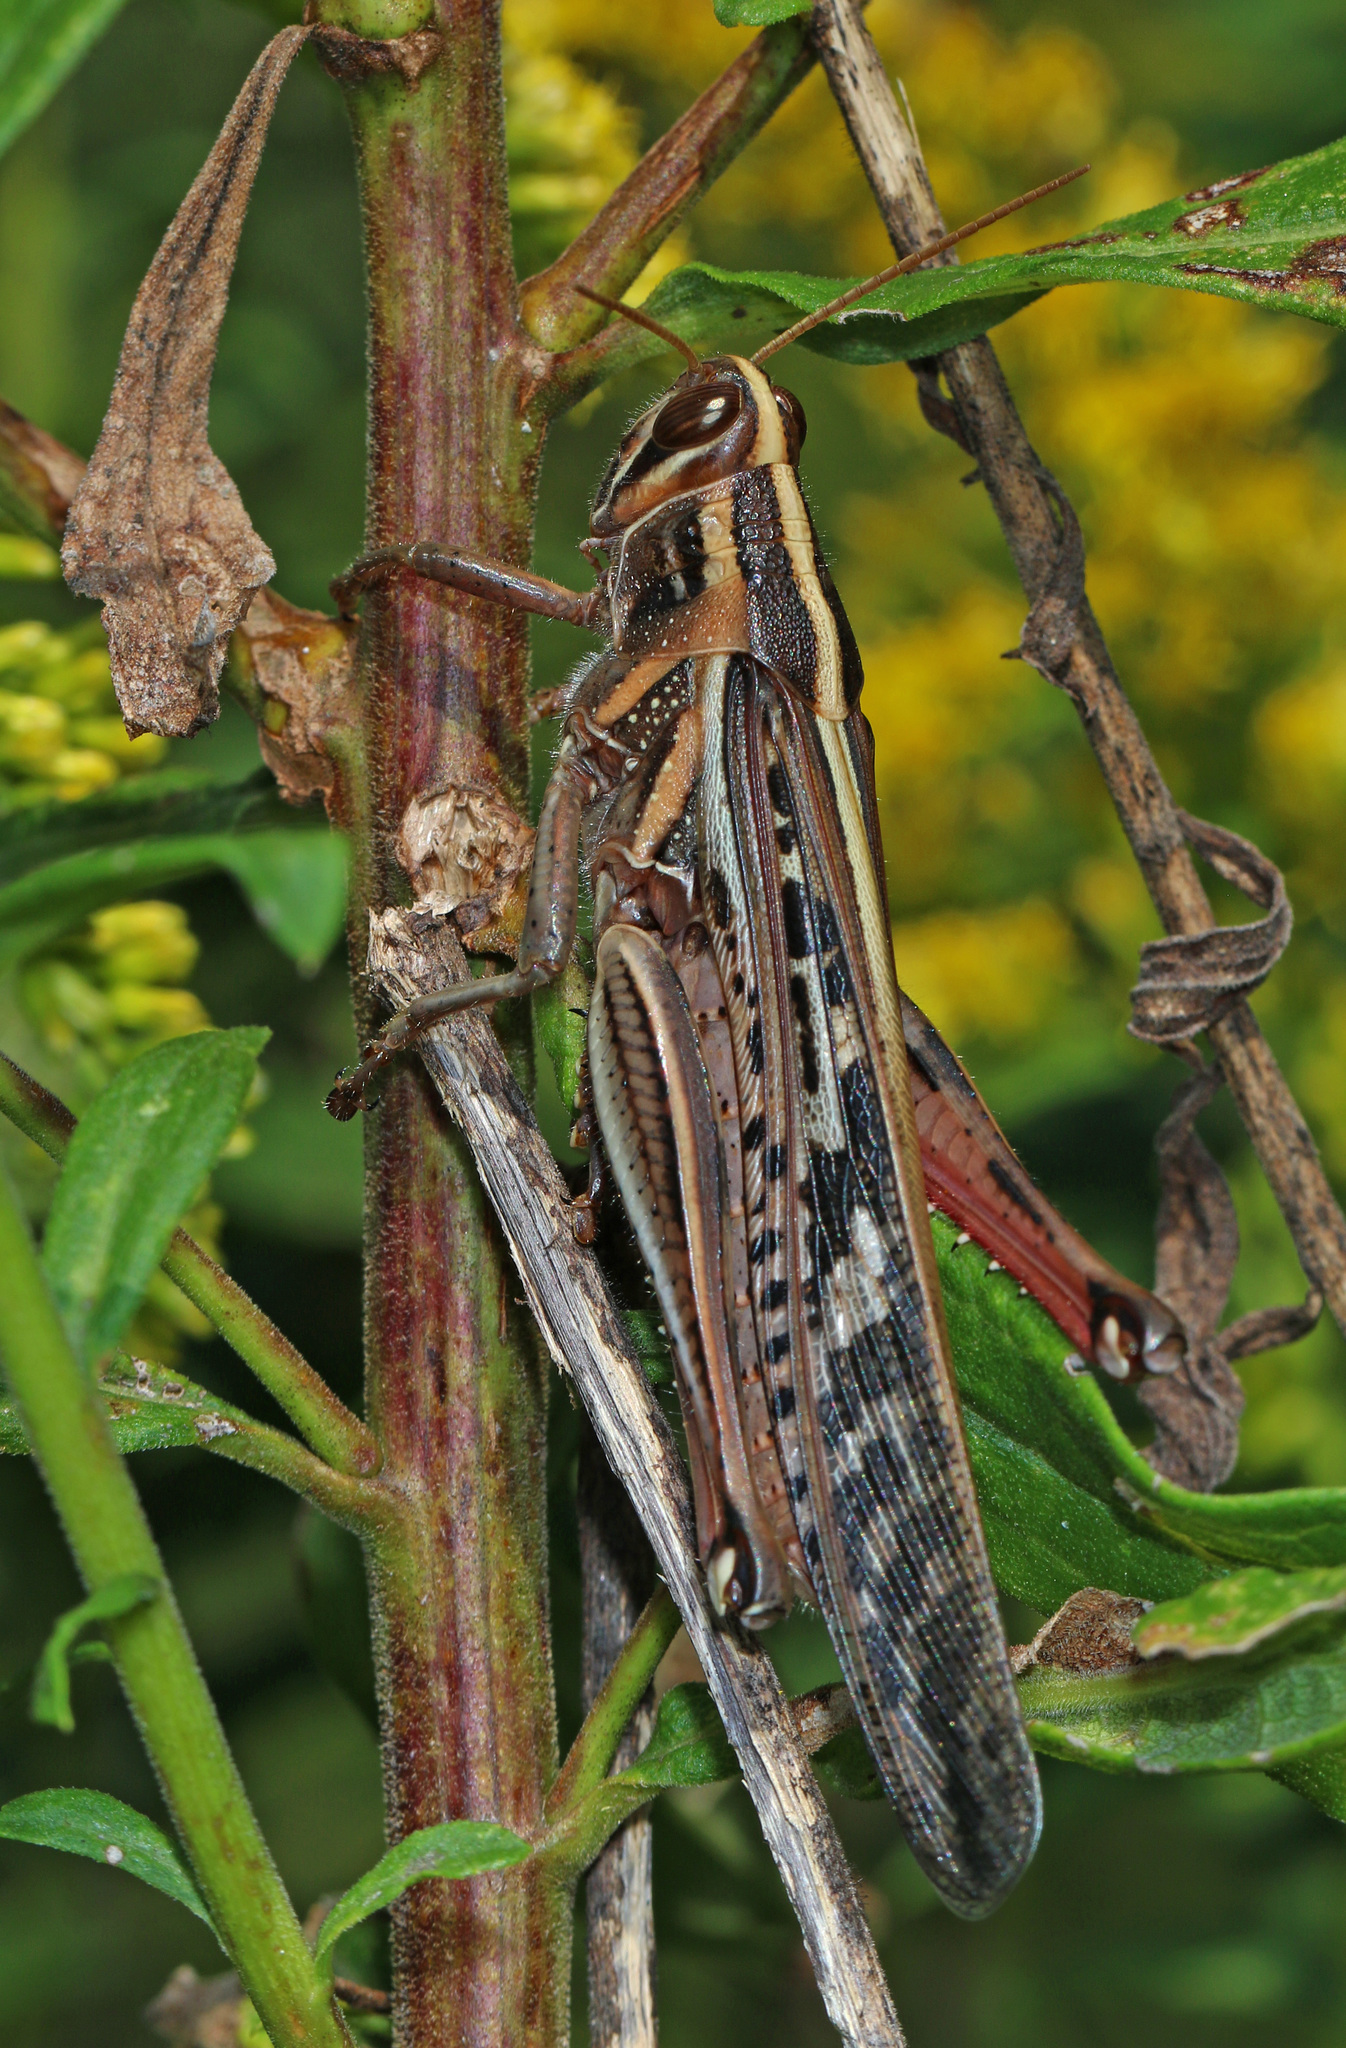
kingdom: Animalia
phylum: Arthropoda
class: Insecta
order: Orthoptera
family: Acrididae
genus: Schistocerca
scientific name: Schistocerca americana
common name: American bird locust
